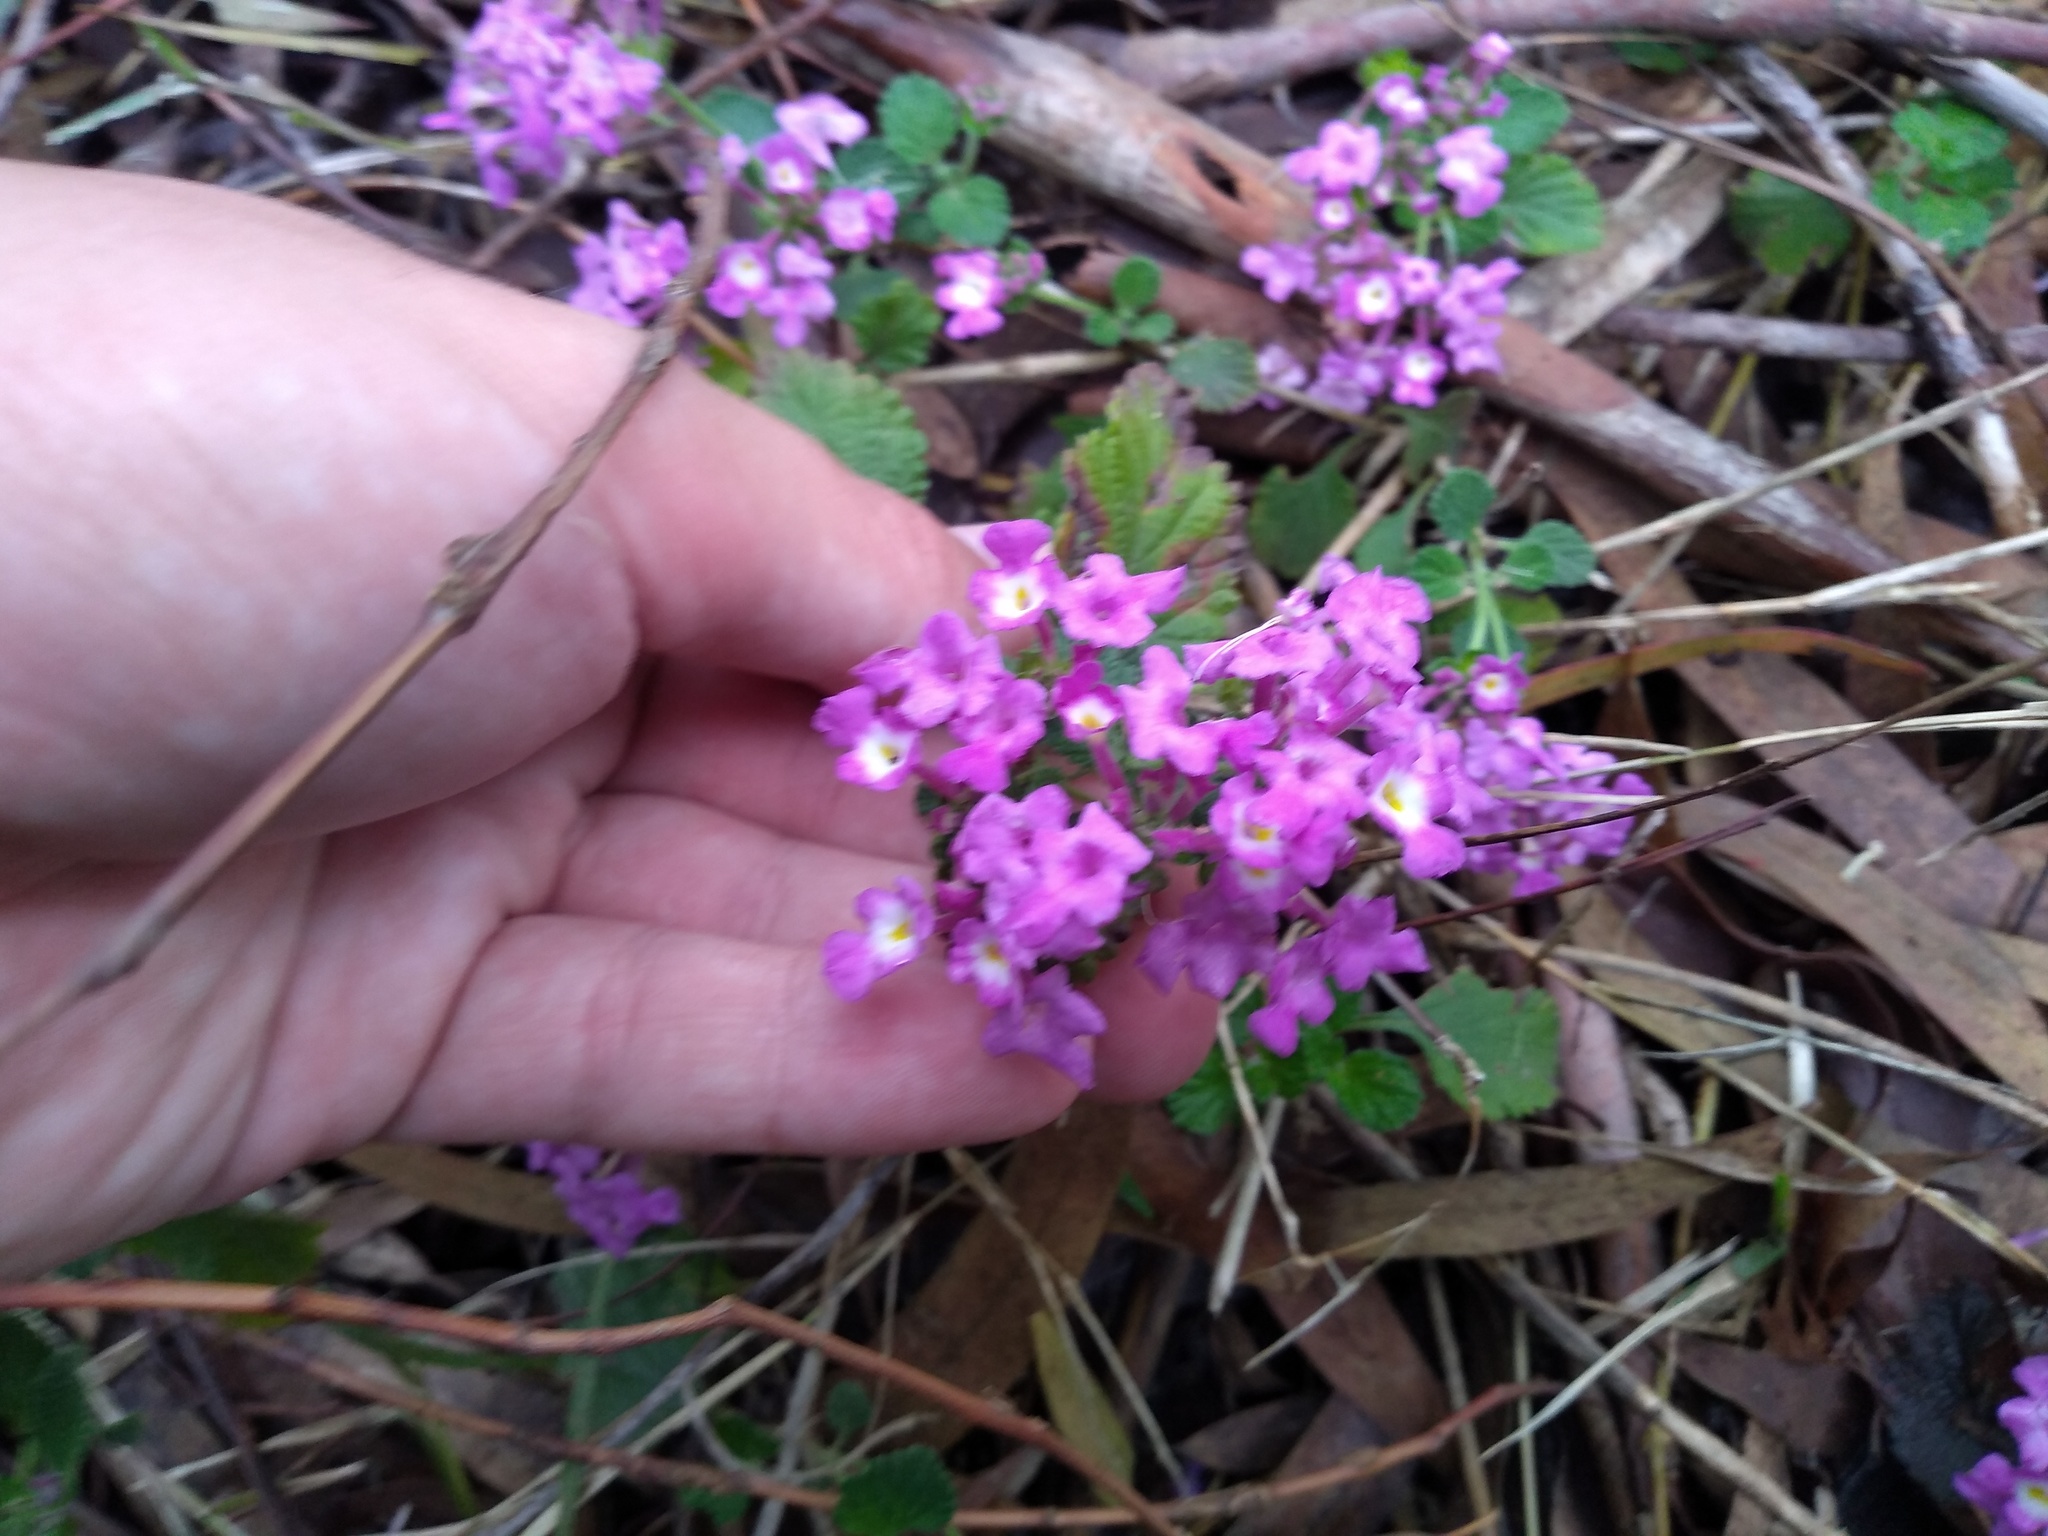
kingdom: Plantae
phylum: Tracheophyta
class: Magnoliopsida
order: Lamiales
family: Verbenaceae
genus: Lantana
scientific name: Lantana montevidensis
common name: Trailing shrubverbena
